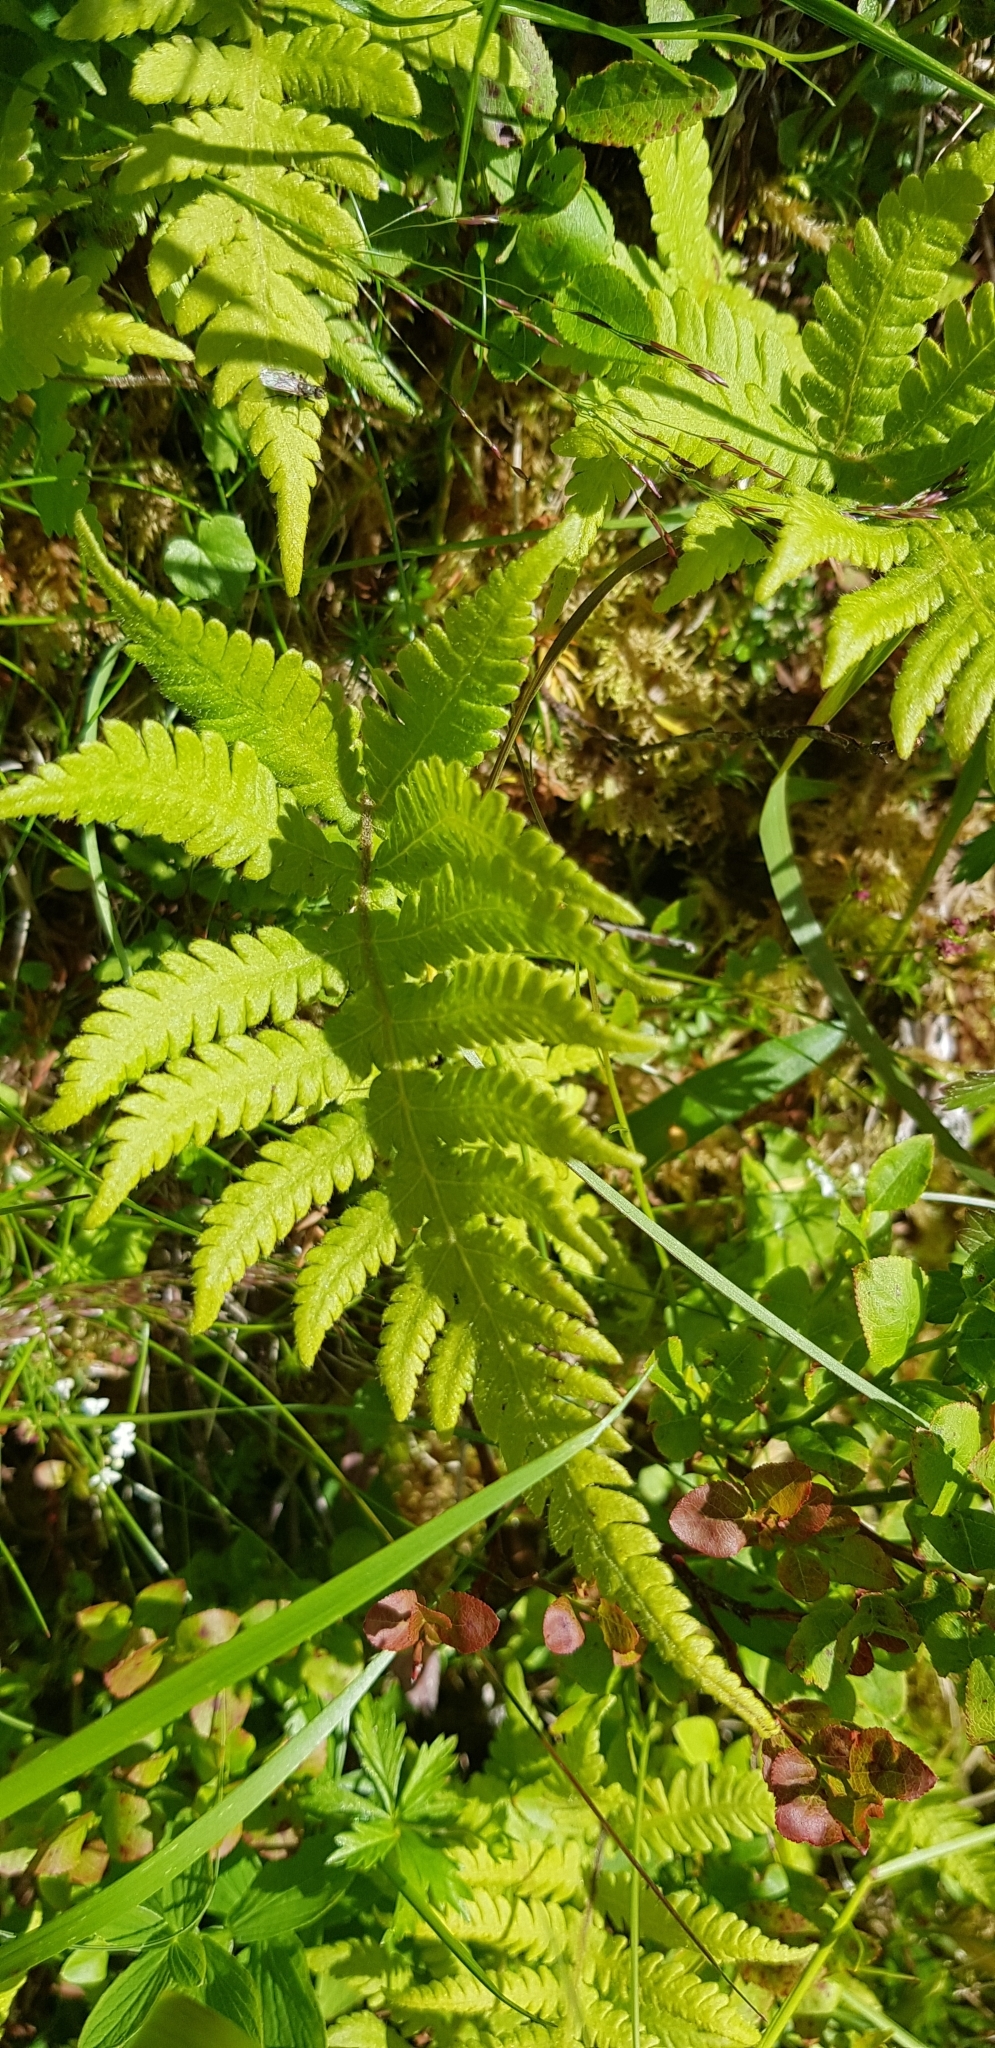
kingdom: Plantae
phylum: Tracheophyta
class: Polypodiopsida
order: Polypodiales
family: Thelypteridaceae
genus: Phegopteris
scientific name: Phegopteris connectilis
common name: Beech fern
